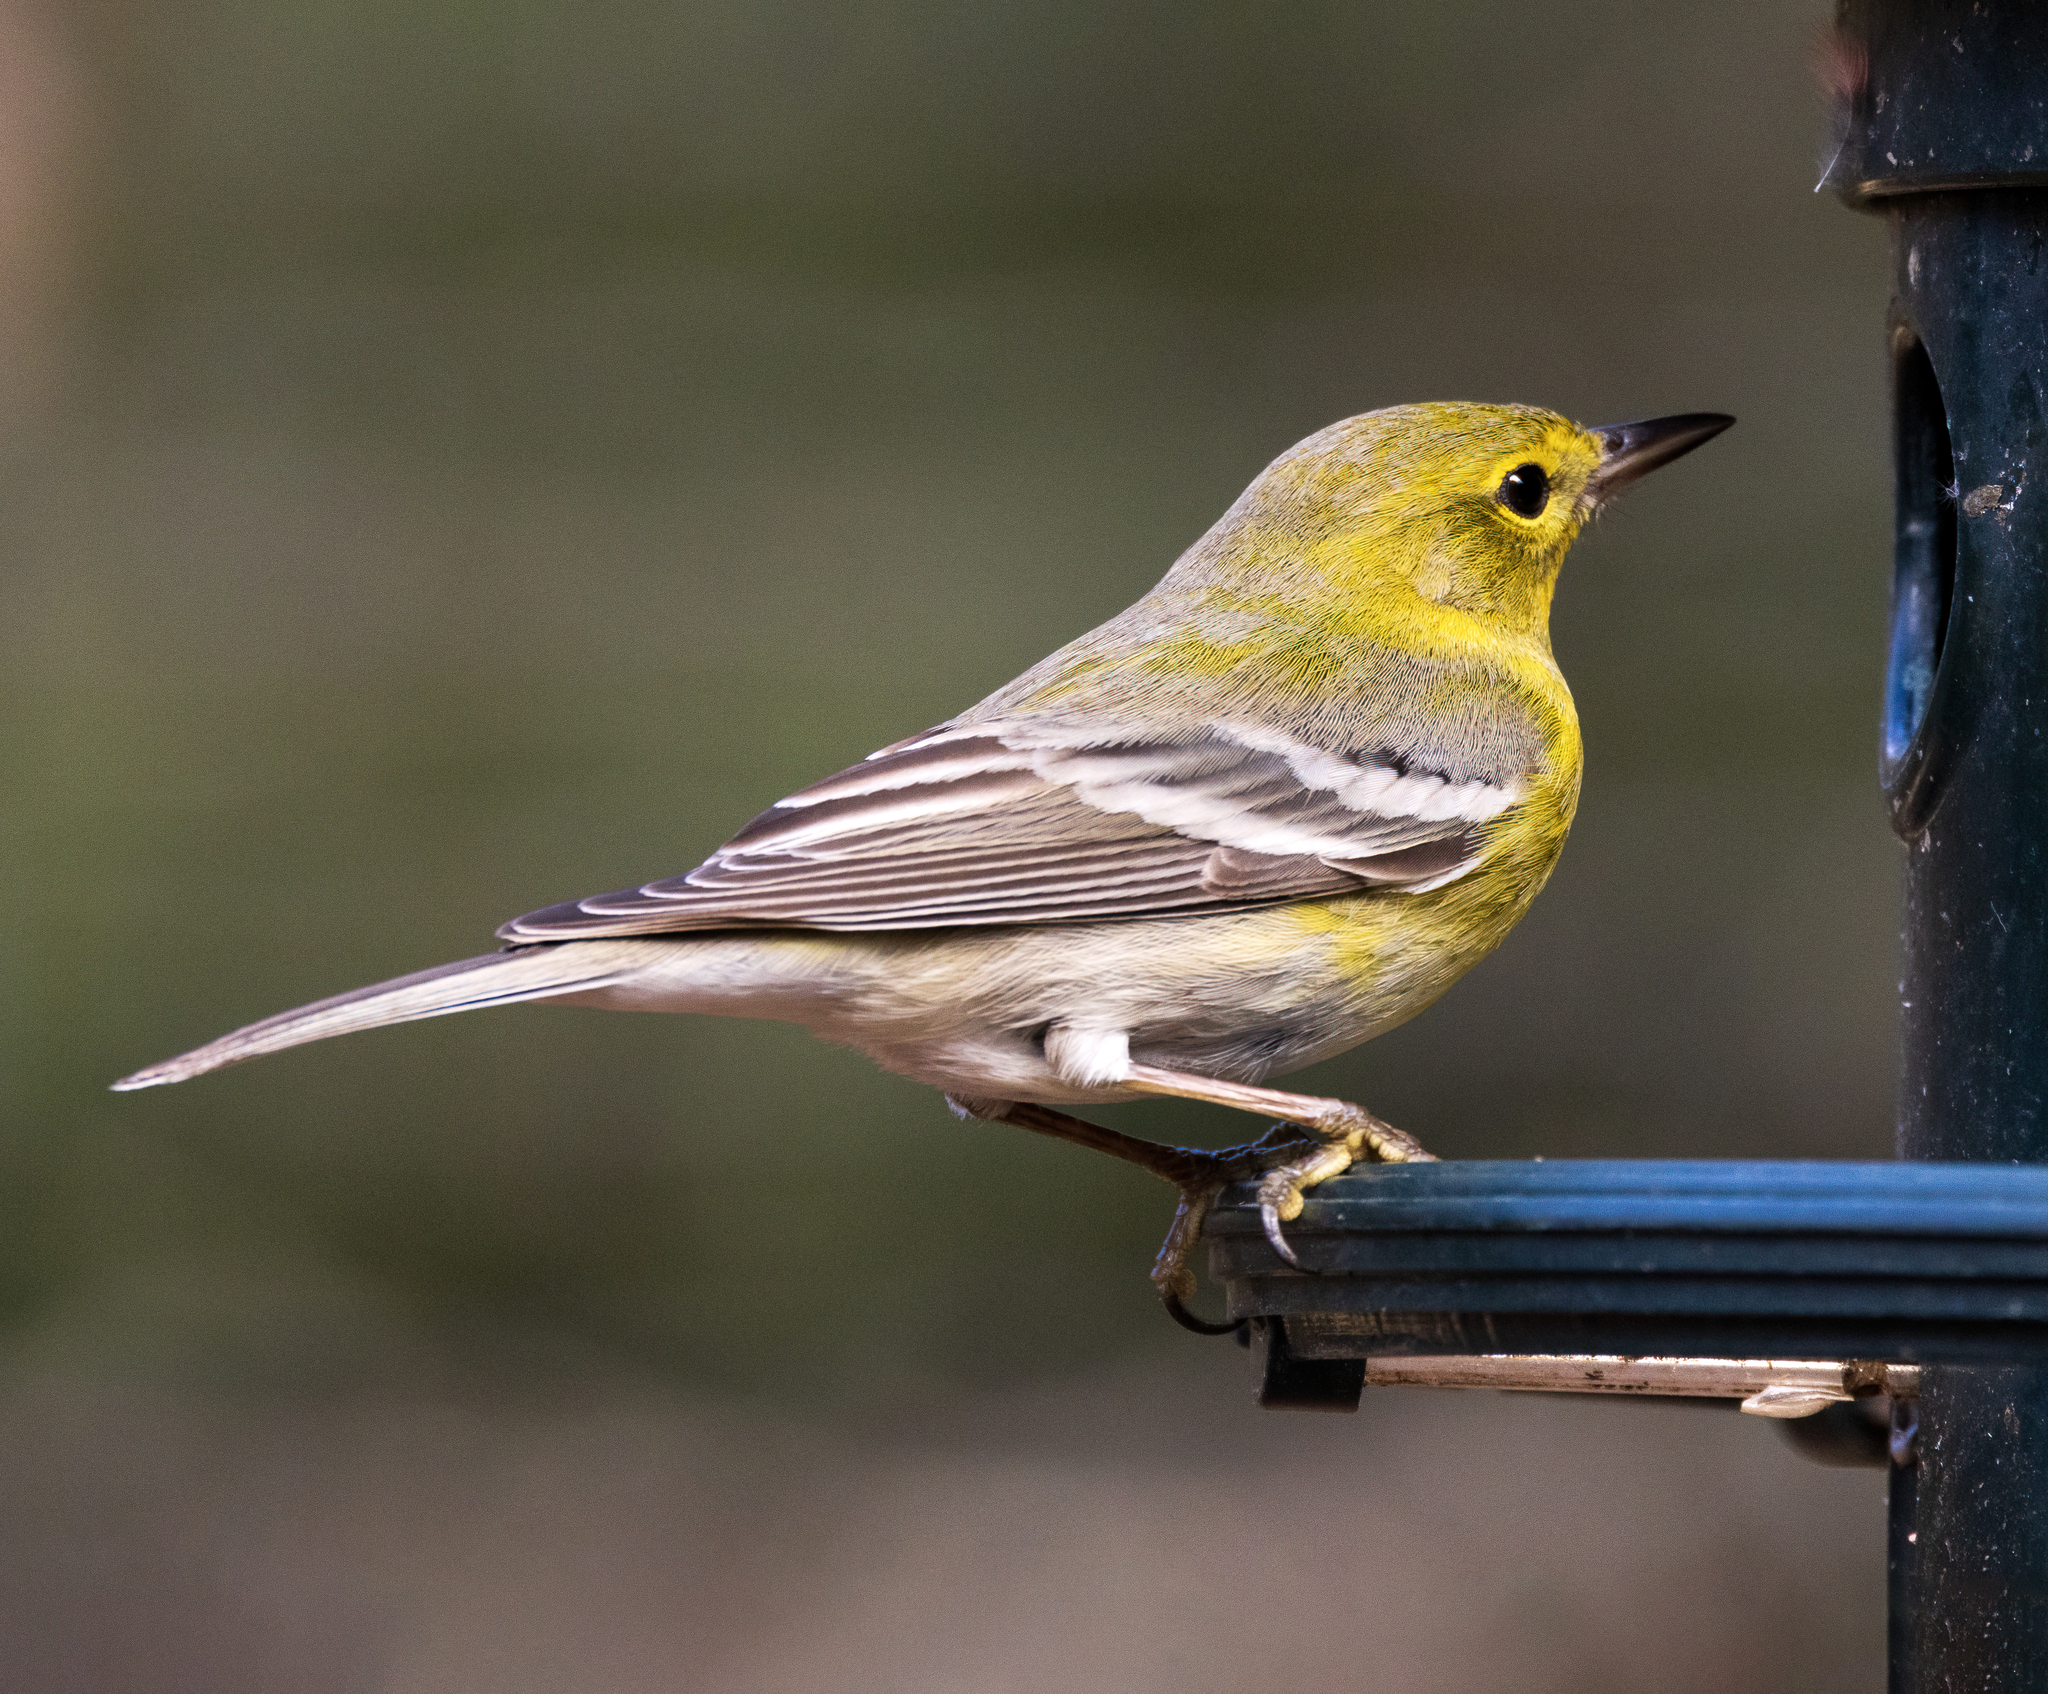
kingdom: Animalia
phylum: Chordata
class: Aves
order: Passeriformes
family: Parulidae
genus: Setophaga
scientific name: Setophaga pinus
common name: Pine warbler
